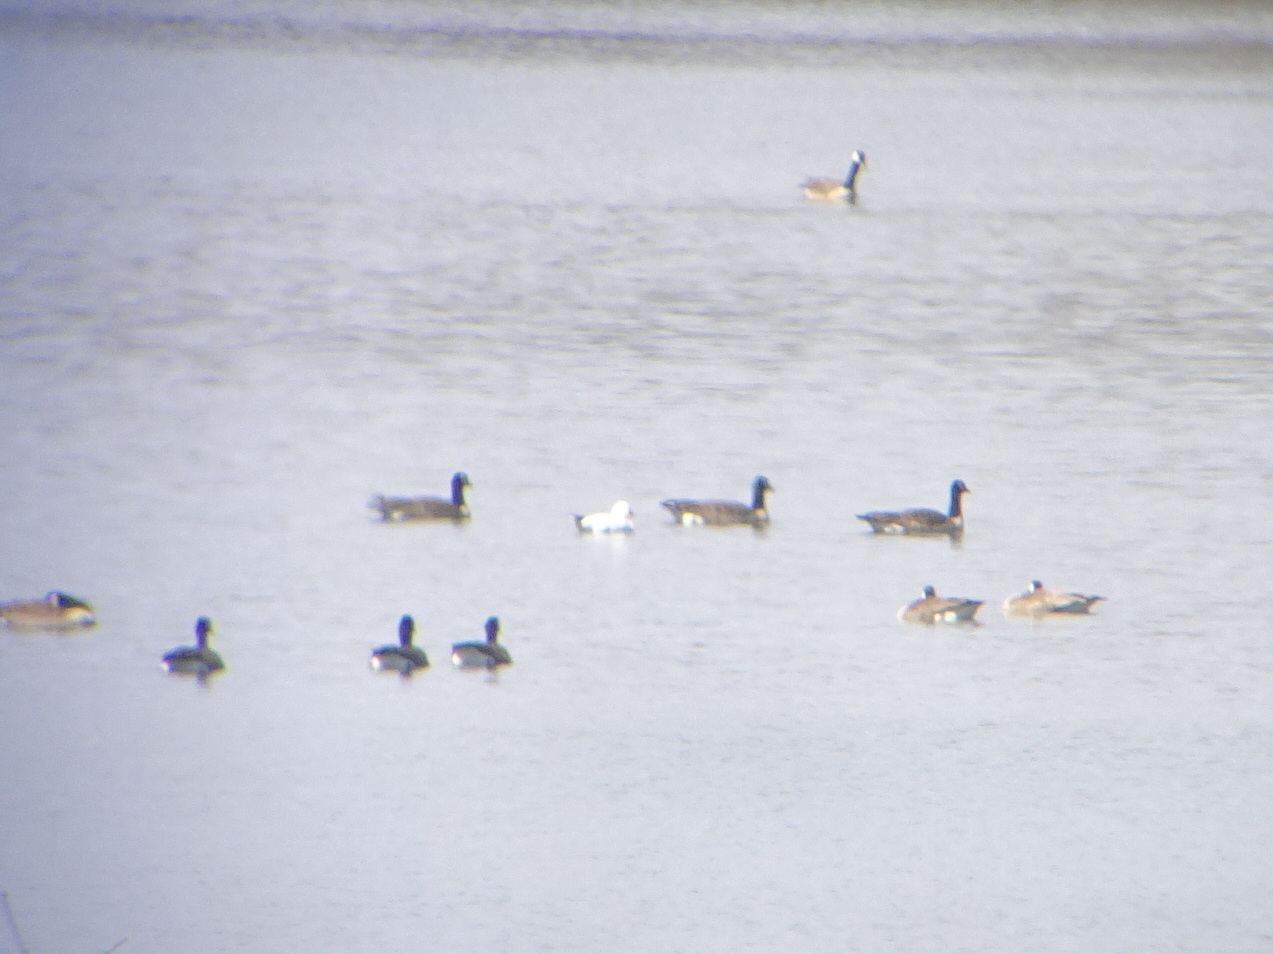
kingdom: Animalia
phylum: Chordata
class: Aves
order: Anseriformes
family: Anatidae
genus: Anser
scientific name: Anser rossii
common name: Ross's goose
